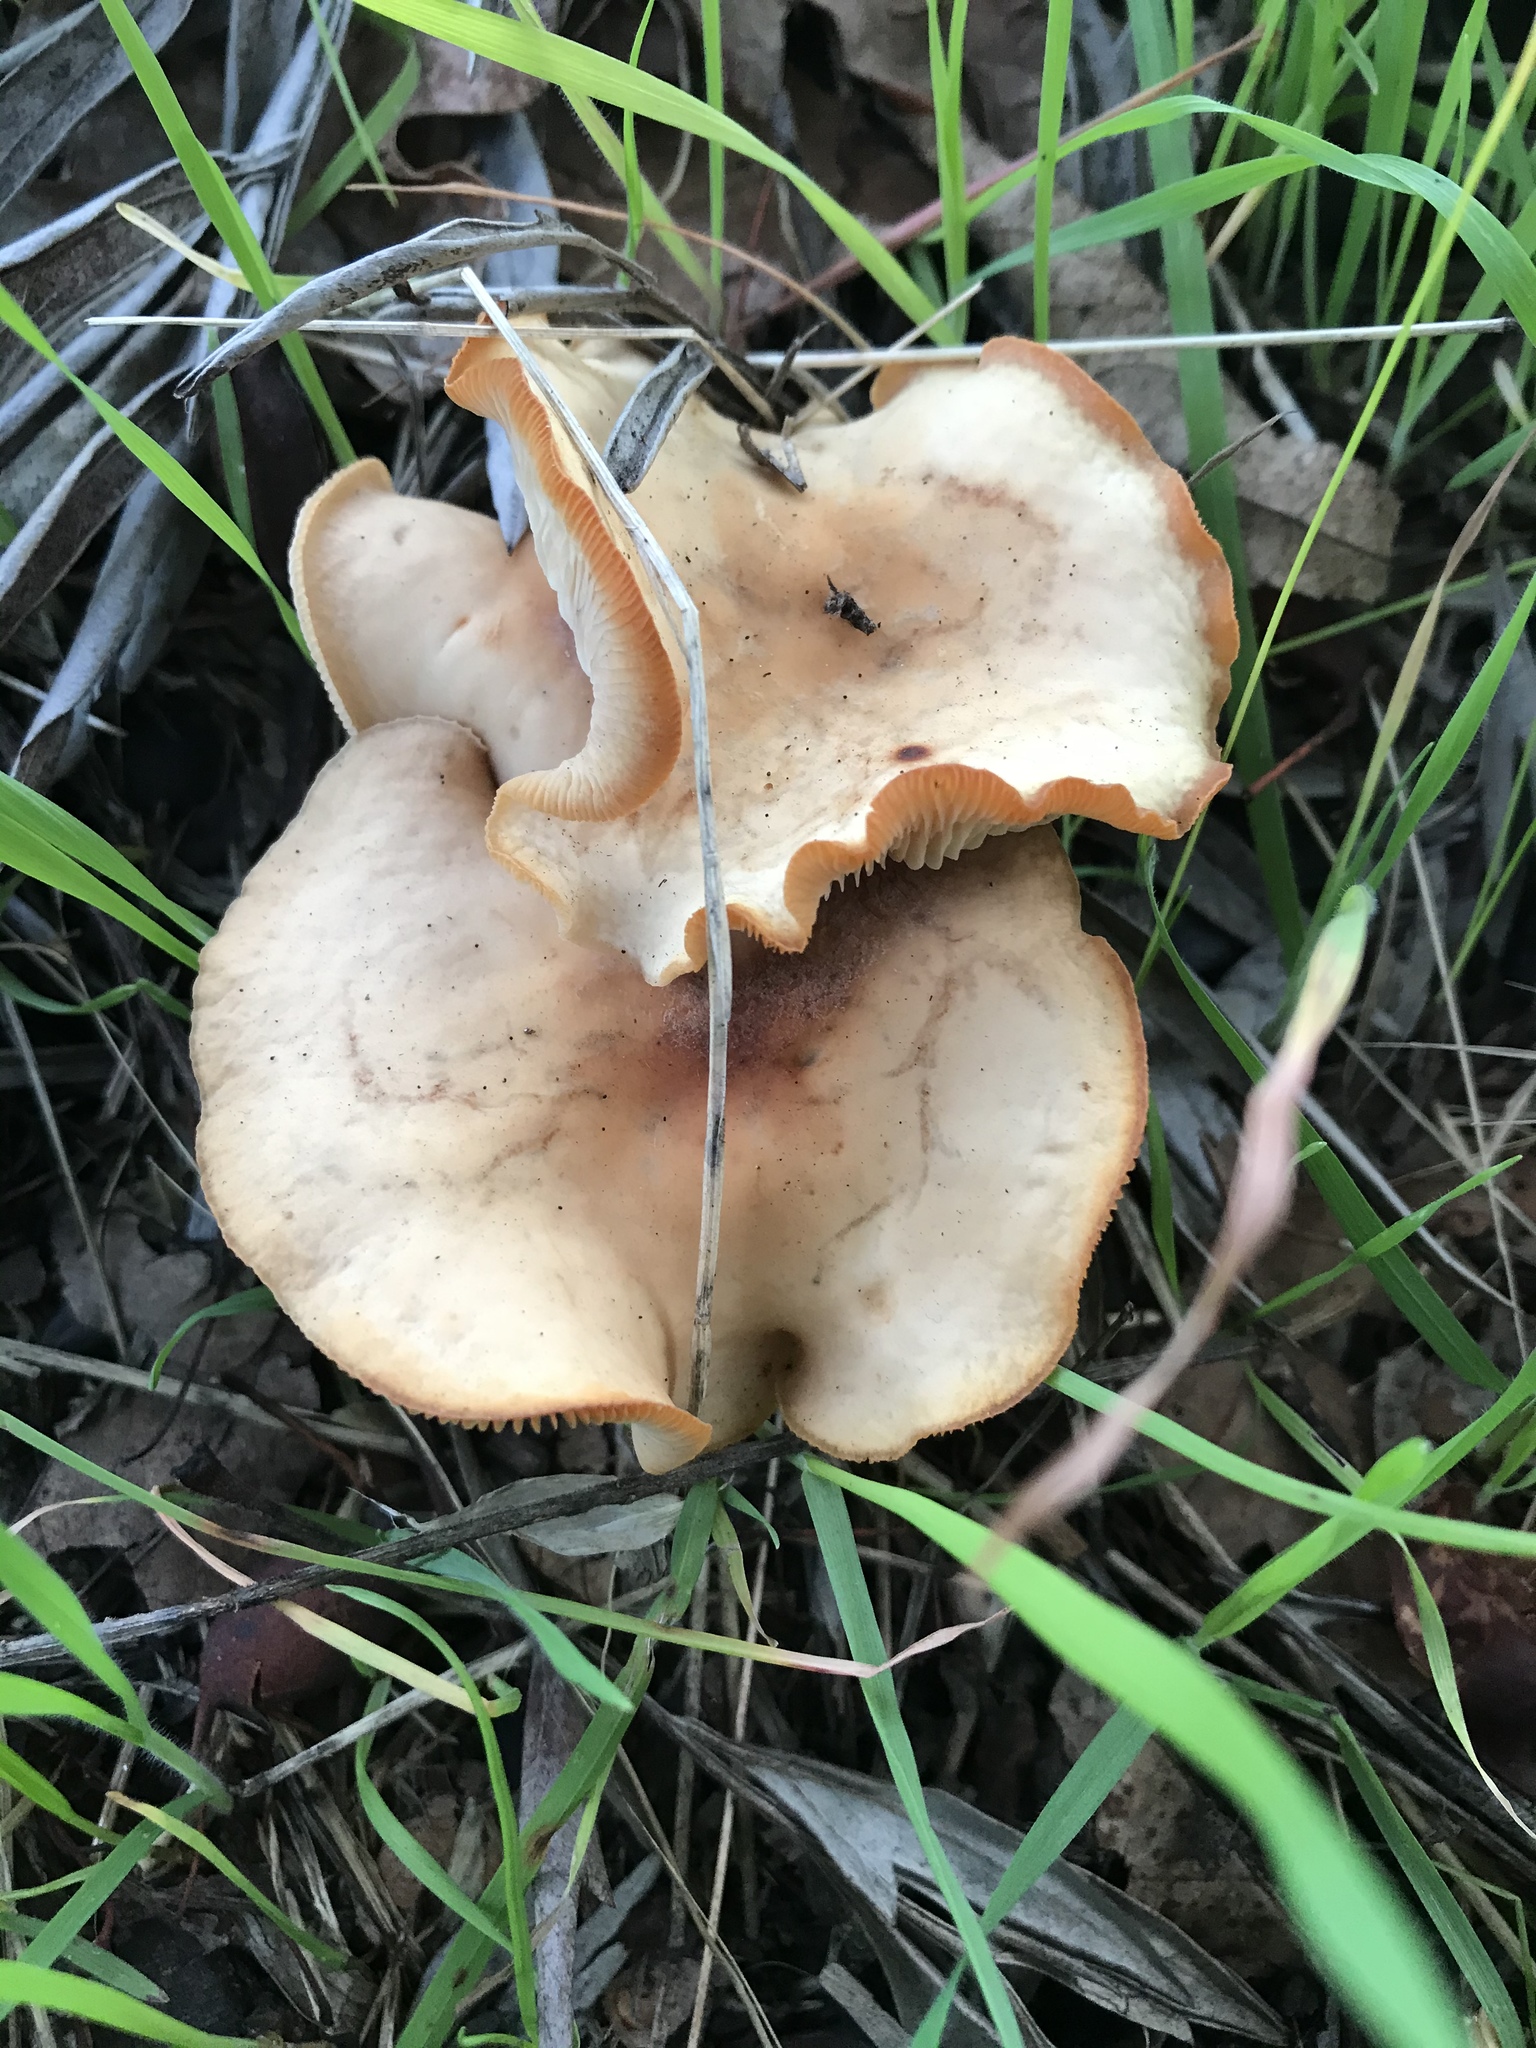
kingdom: Fungi
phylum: Basidiomycota
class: Agaricomycetes
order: Agaricales
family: Omphalotaceae
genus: Gymnopus
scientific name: Gymnopus dryophilus
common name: Penny top
